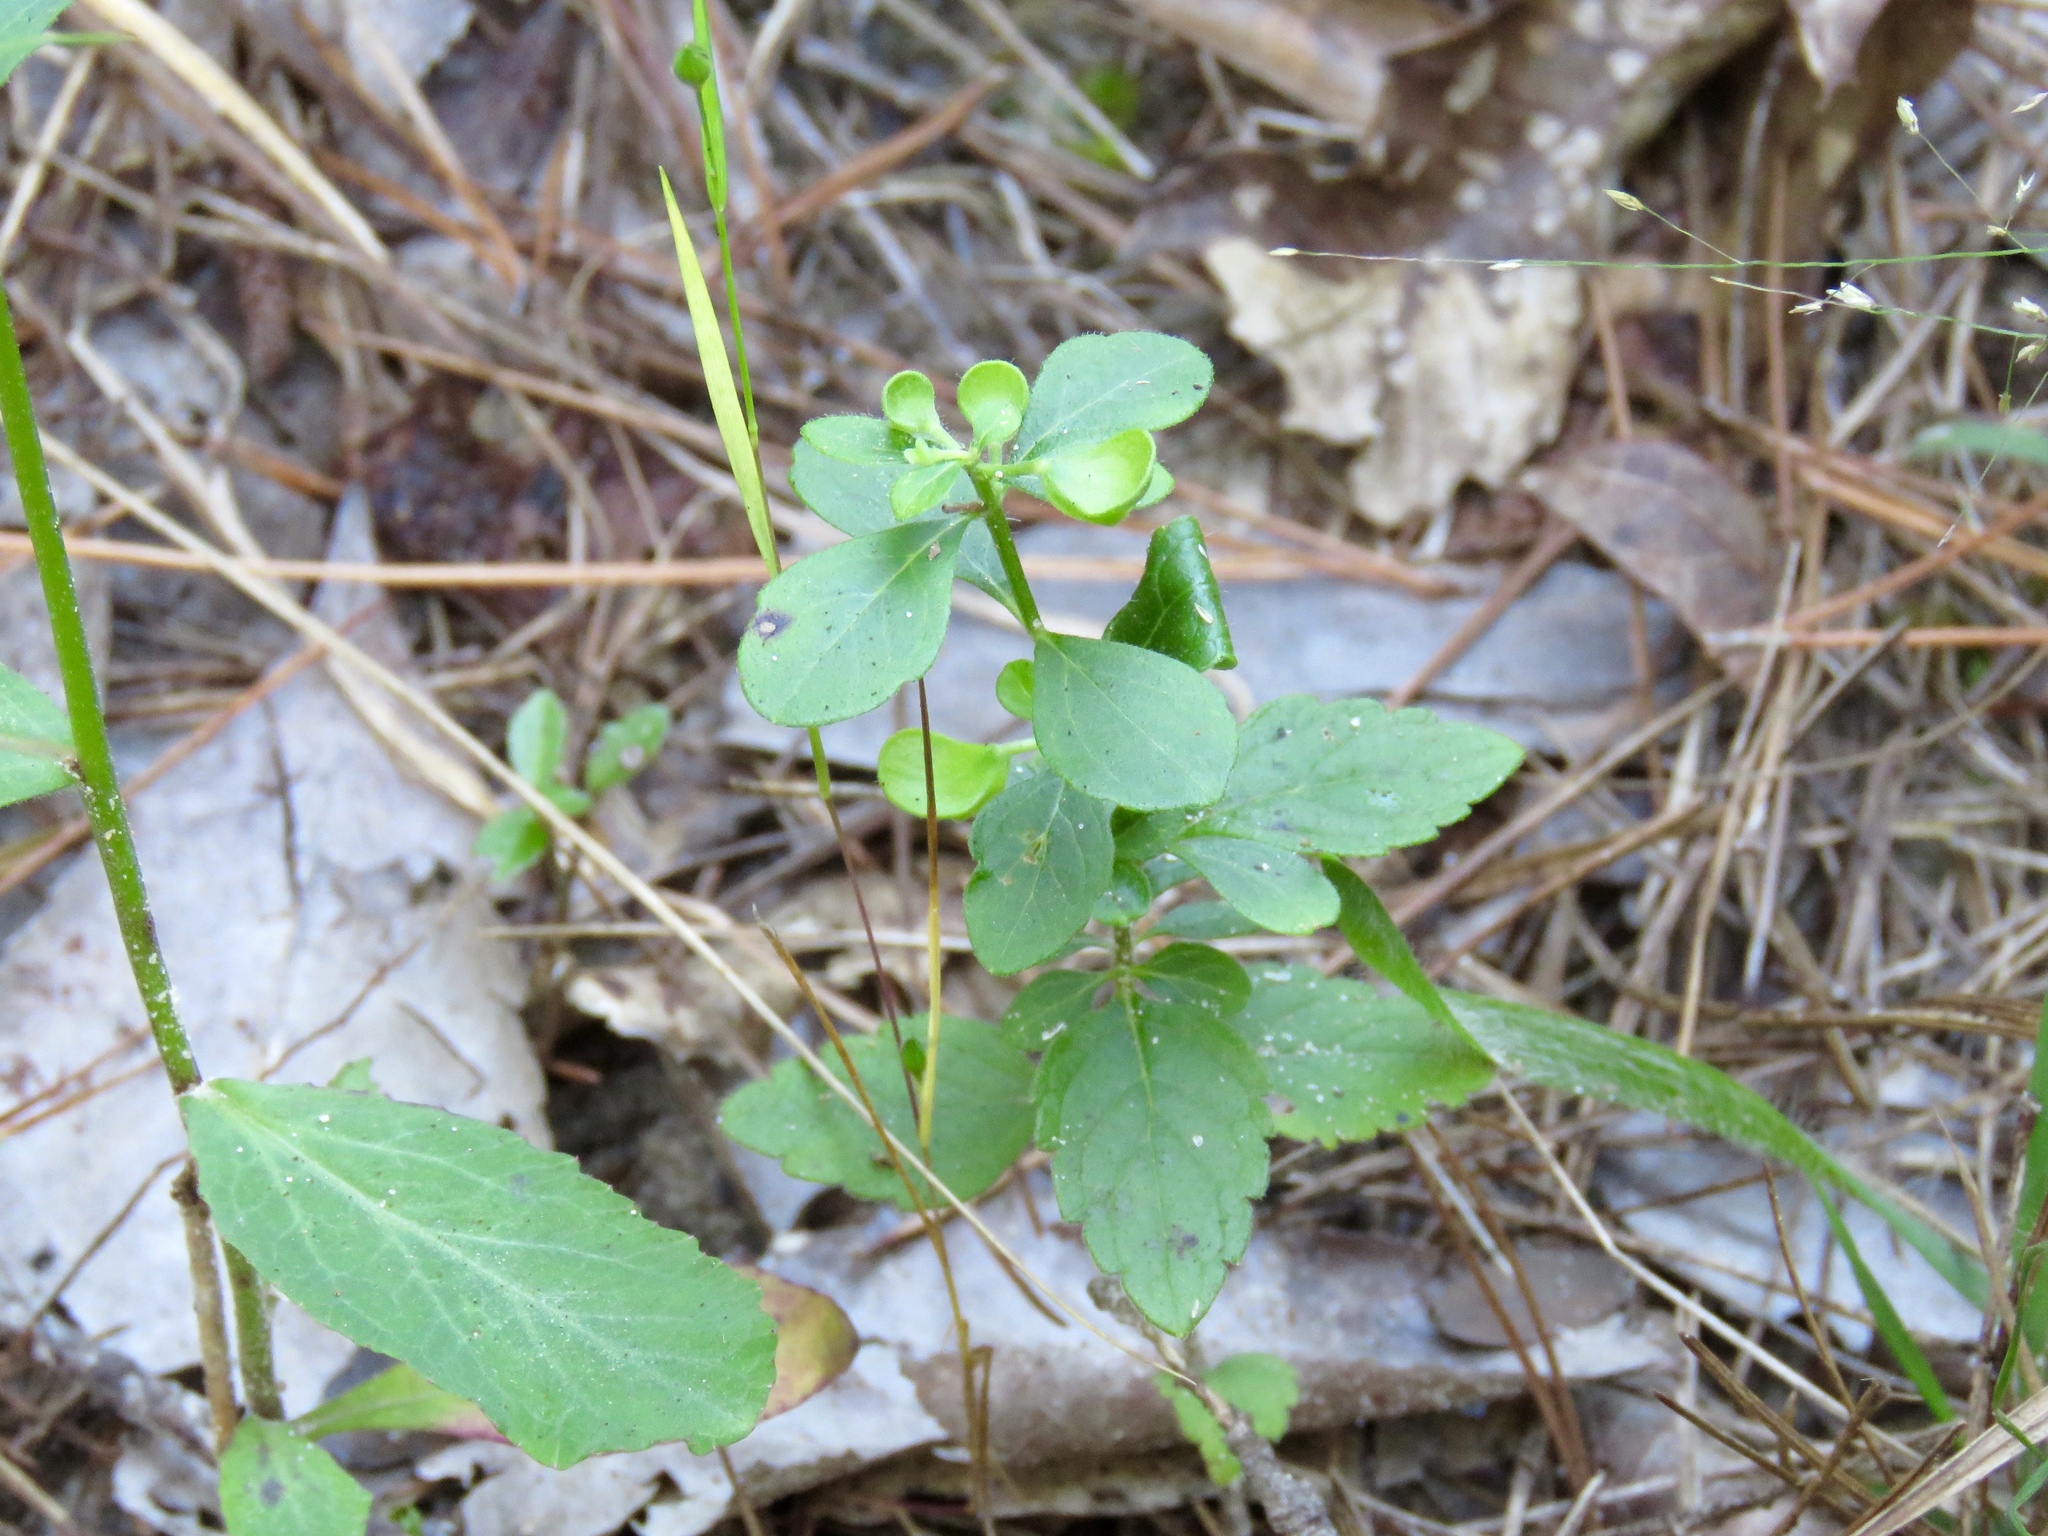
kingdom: Plantae
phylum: Tracheophyta
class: Magnoliopsida
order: Lamiales
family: Lamiaceae
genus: Scutellaria
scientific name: Scutellaria elliptica
